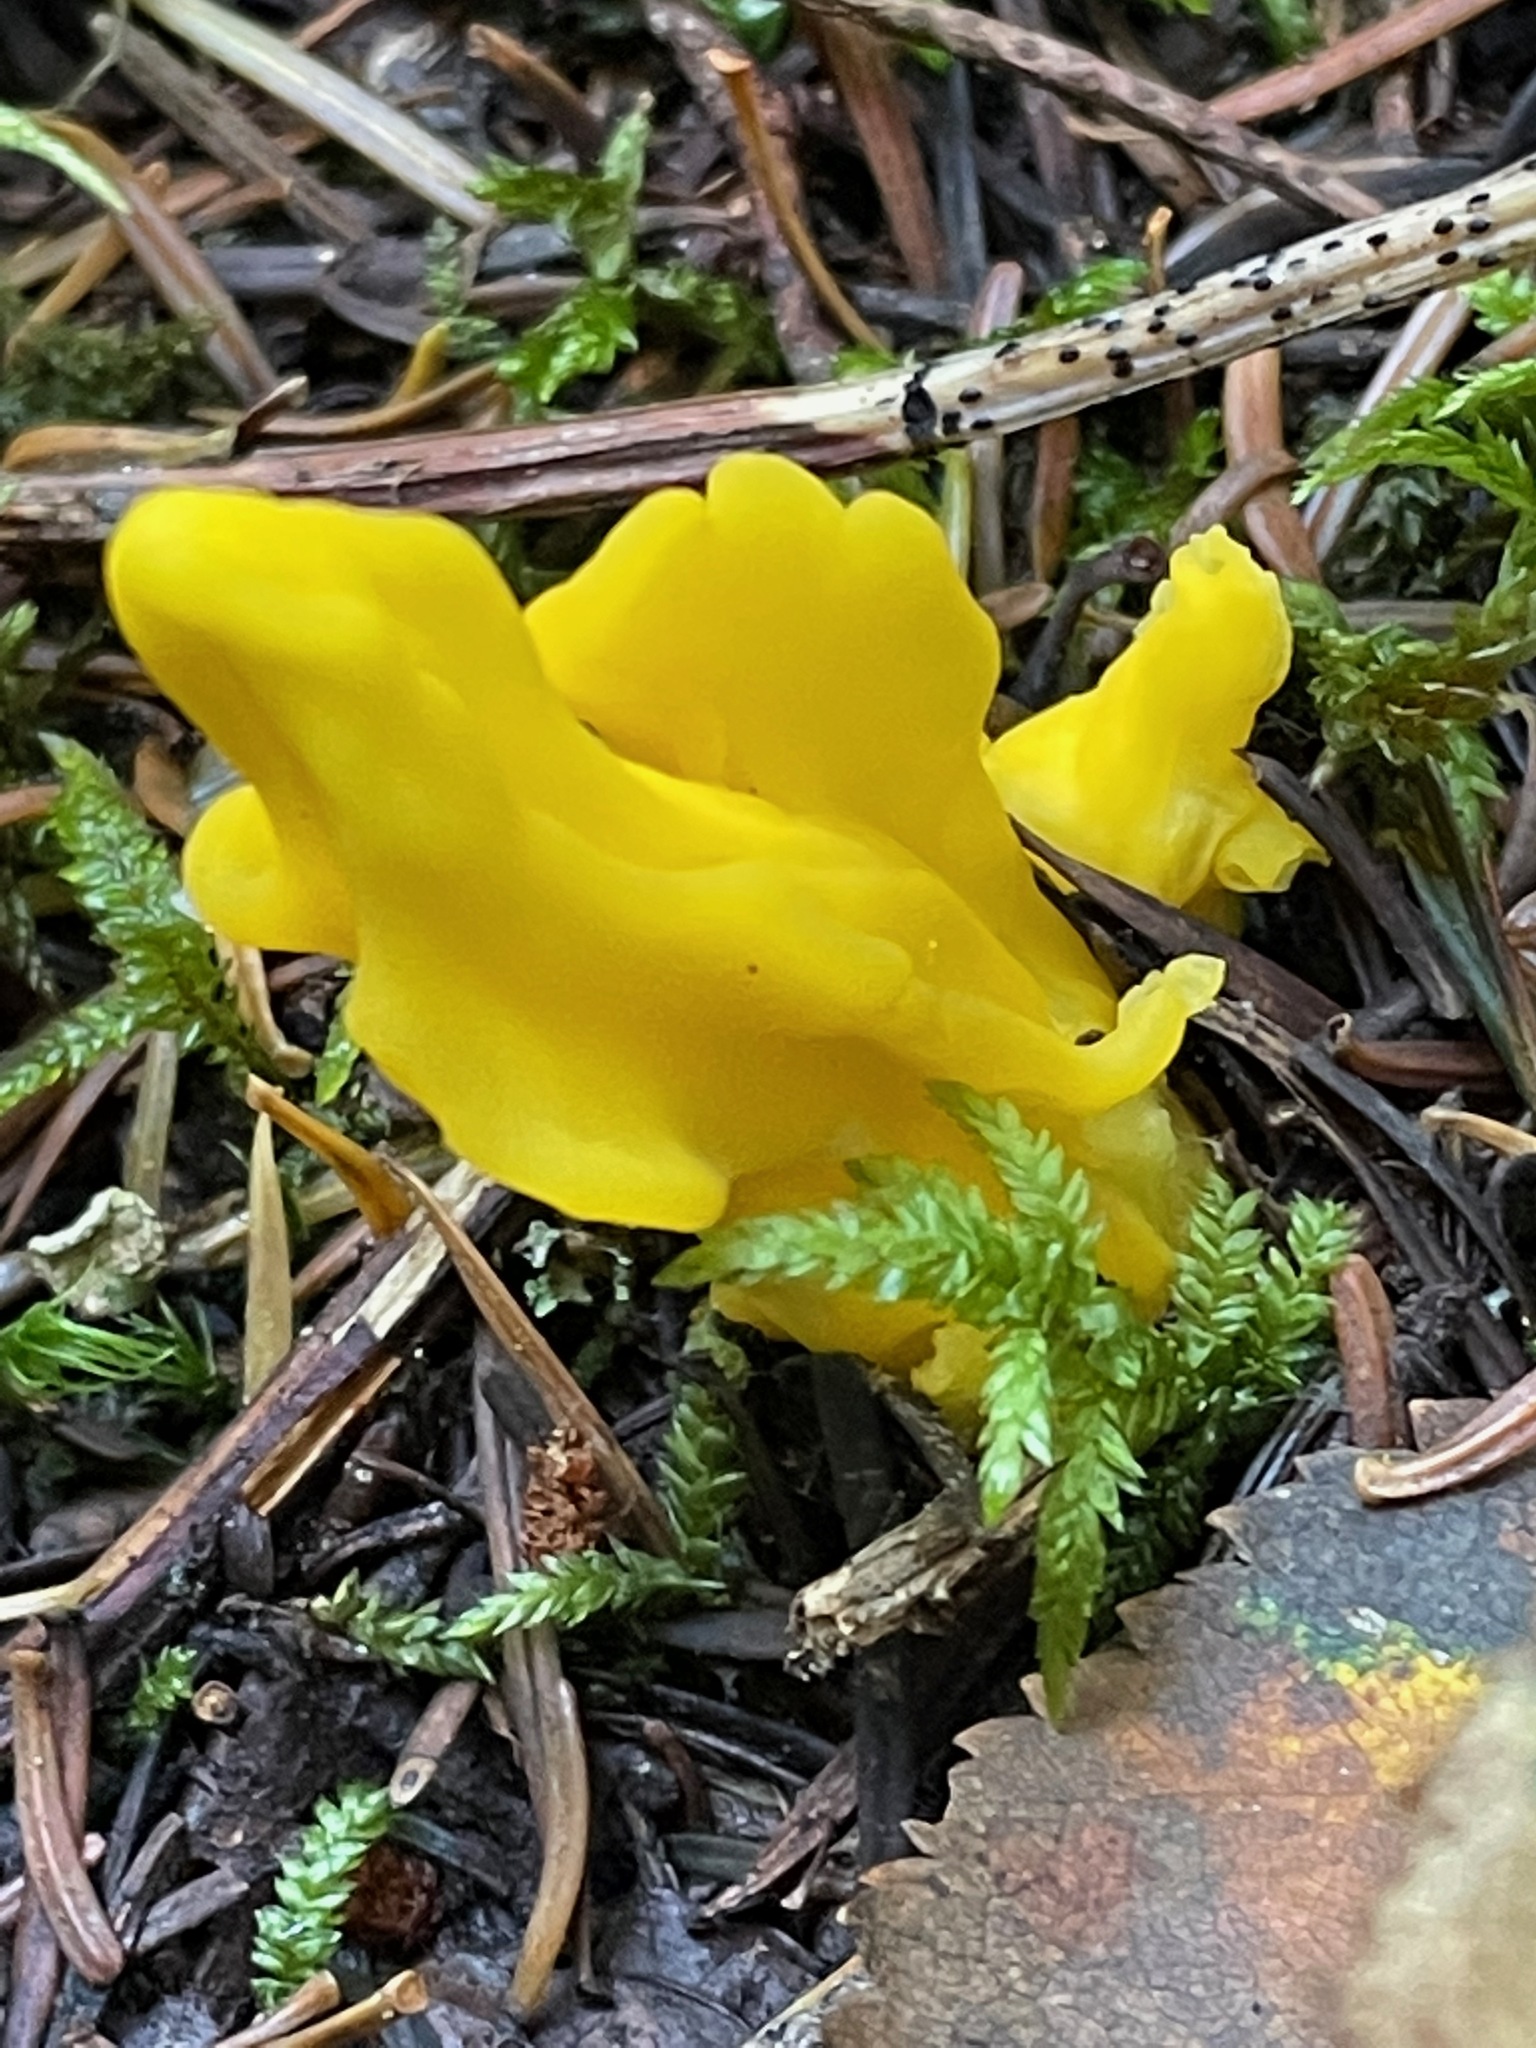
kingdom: Fungi
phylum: Ascomycota
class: Neolectomycetes
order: Neolectales
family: Neolectaceae
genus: Neolecta
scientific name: Neolecta irregularis
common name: Irregular earth tongue
